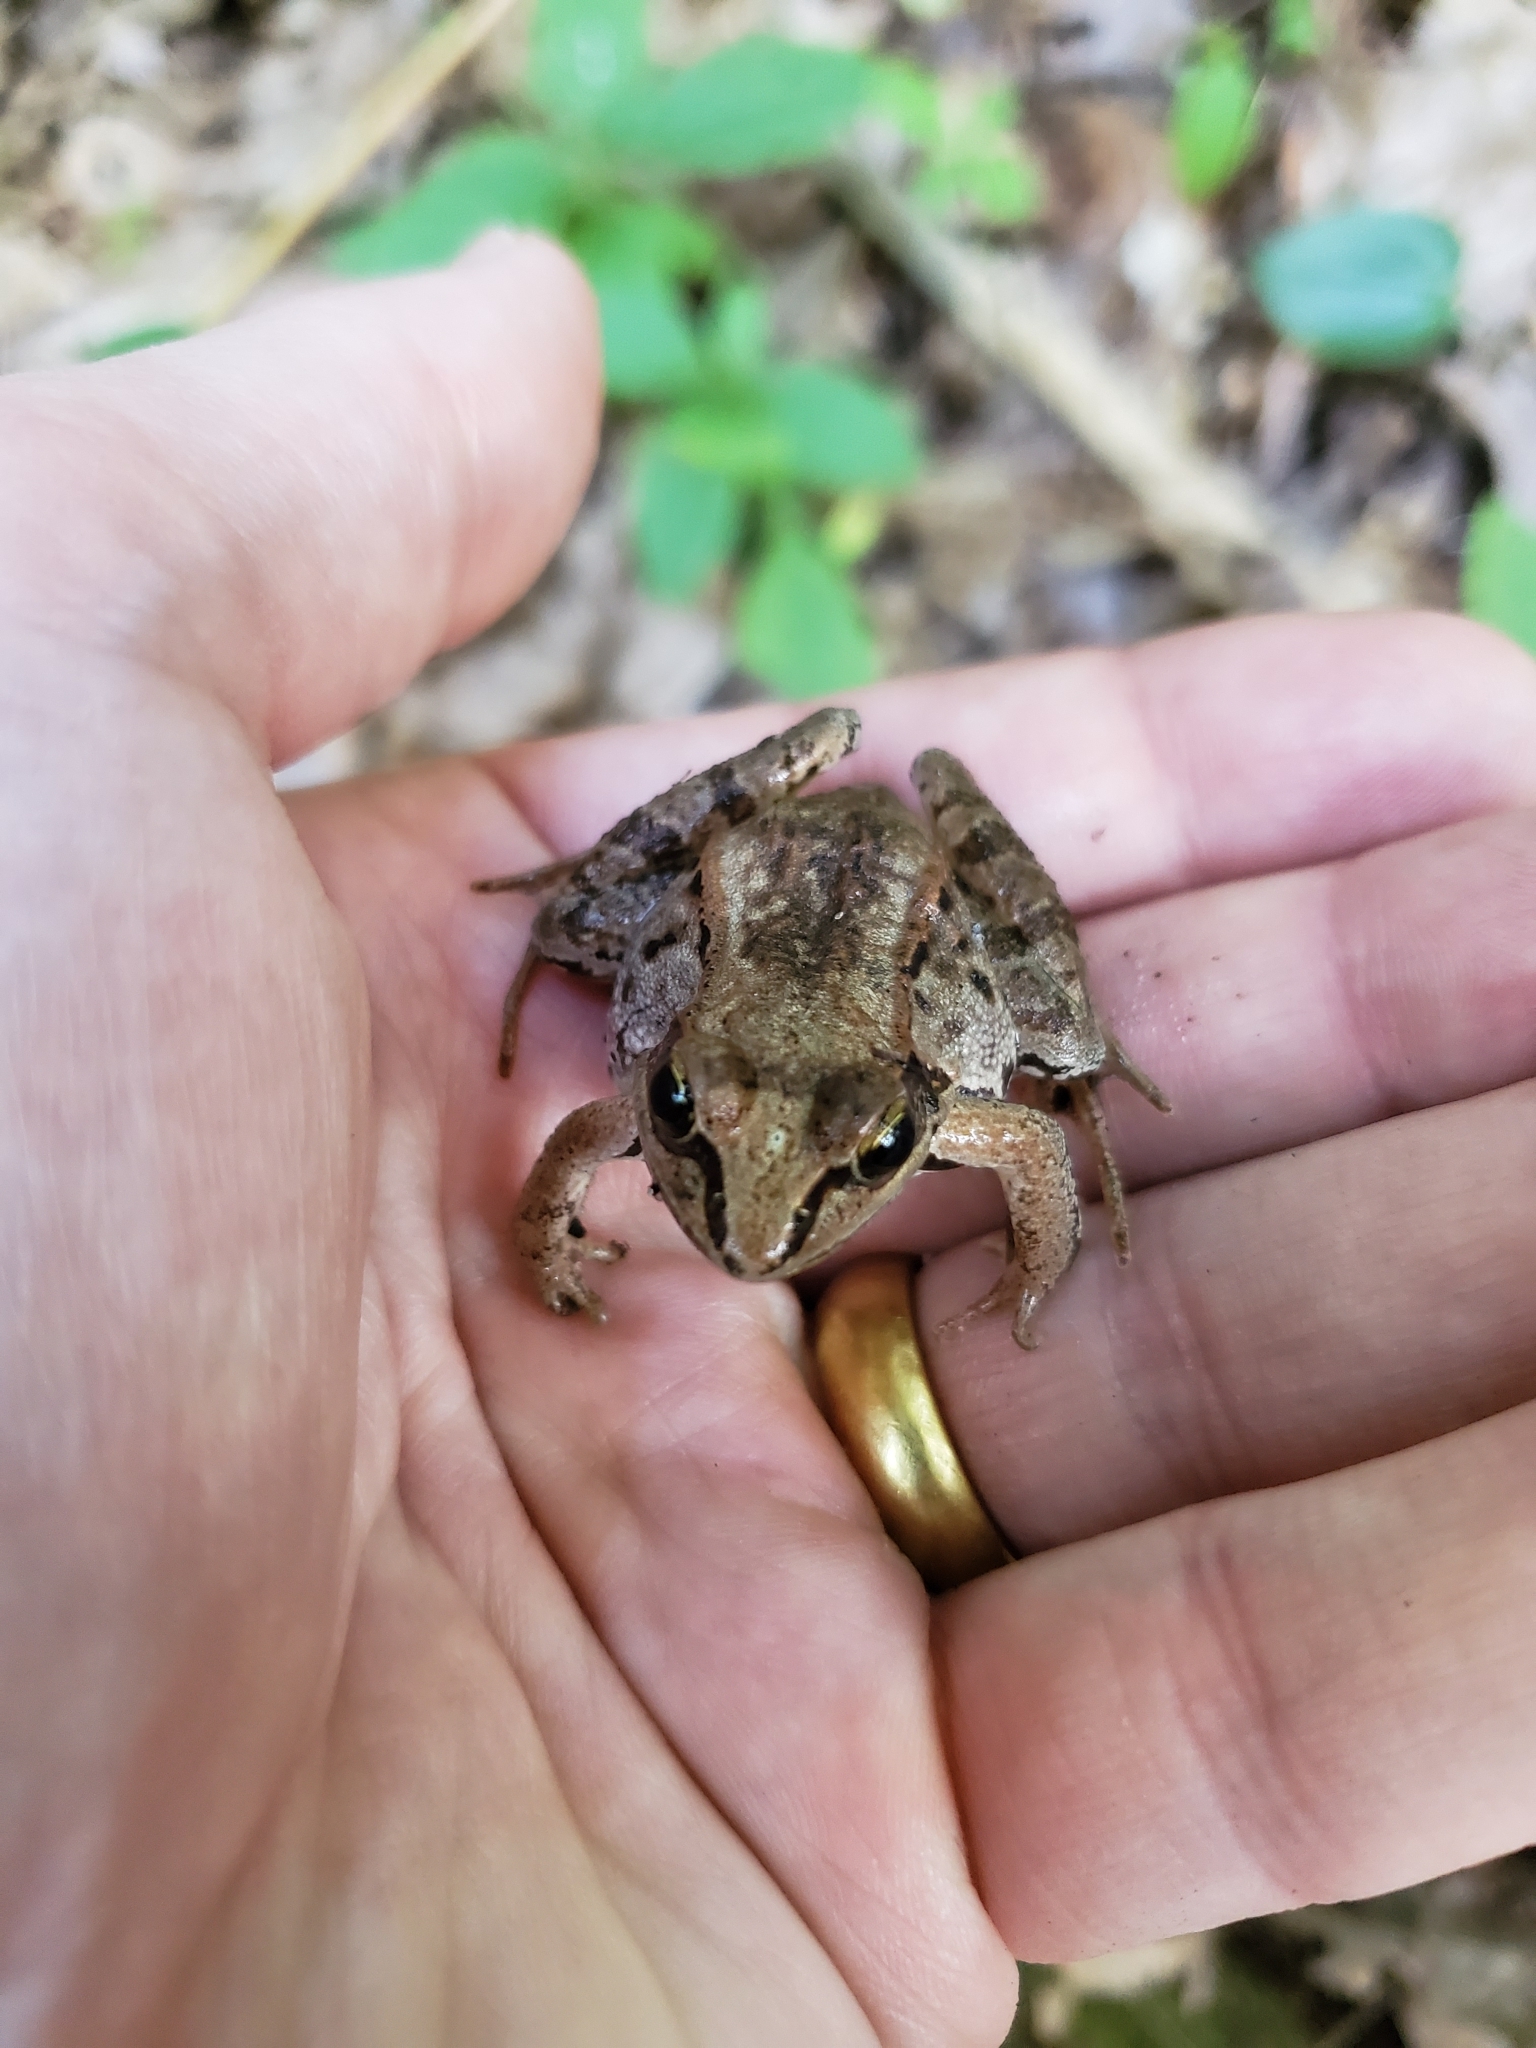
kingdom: Animalia
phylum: Chordata
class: Amphibia
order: Anura
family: Ranidae
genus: Lithobates
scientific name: Lithobates sylvaticus
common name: Wood frog
